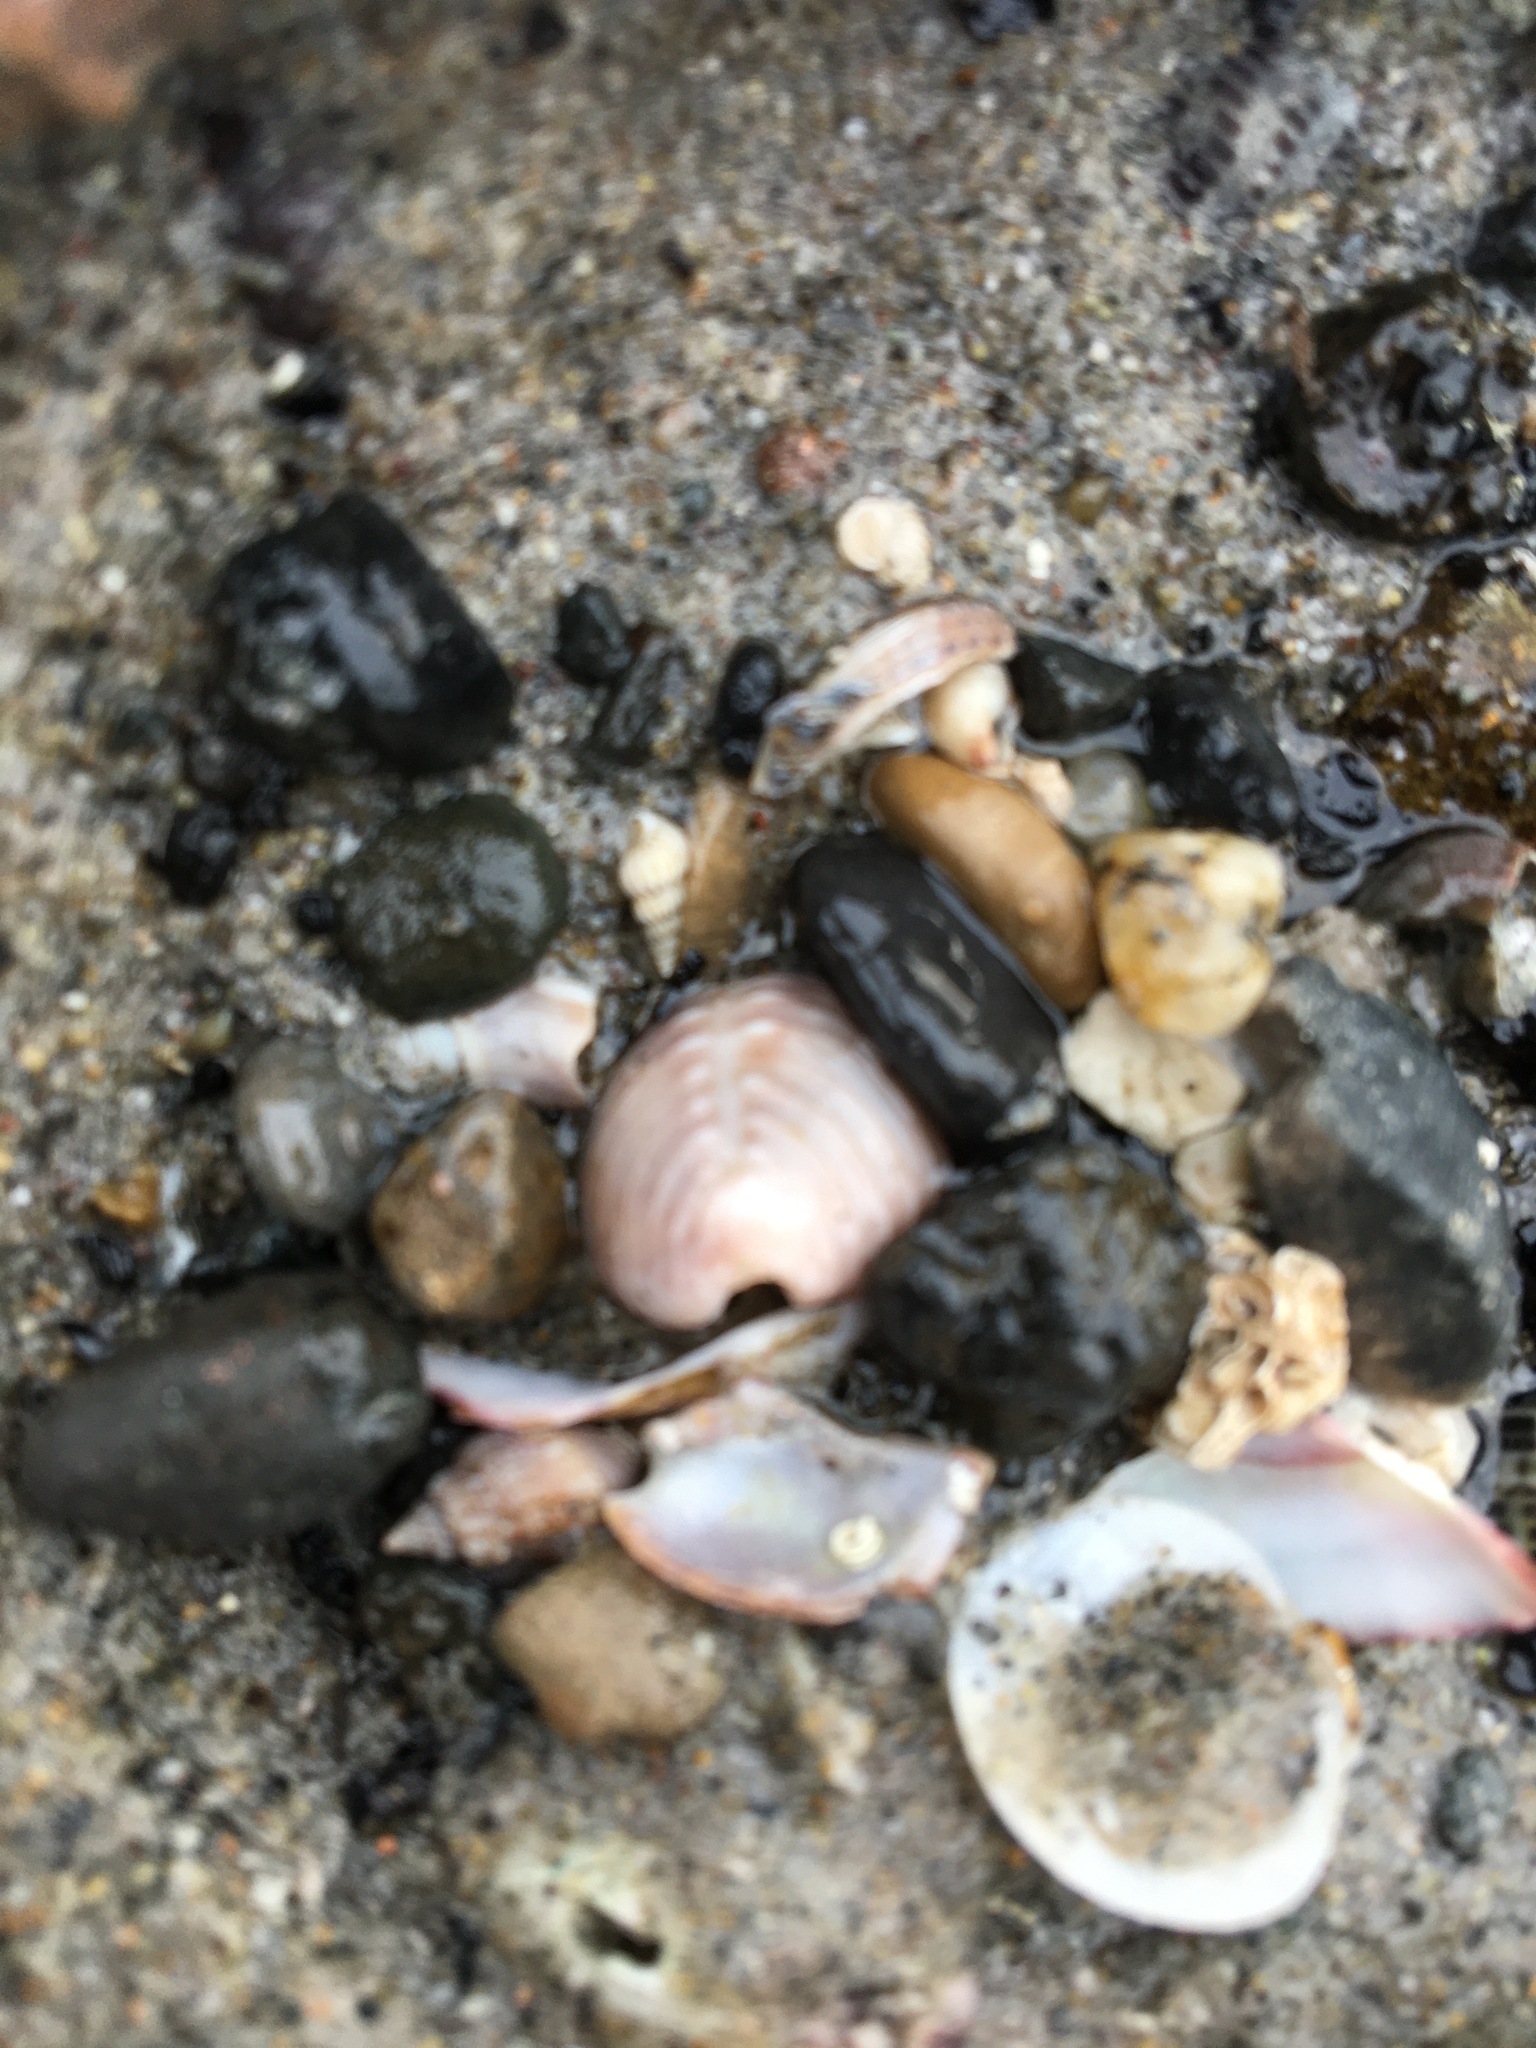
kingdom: Animalia
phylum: Mollusca
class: Gastropoda
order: Littorinimorpha
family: Triviidae
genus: Pusula
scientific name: Pusula solandri
